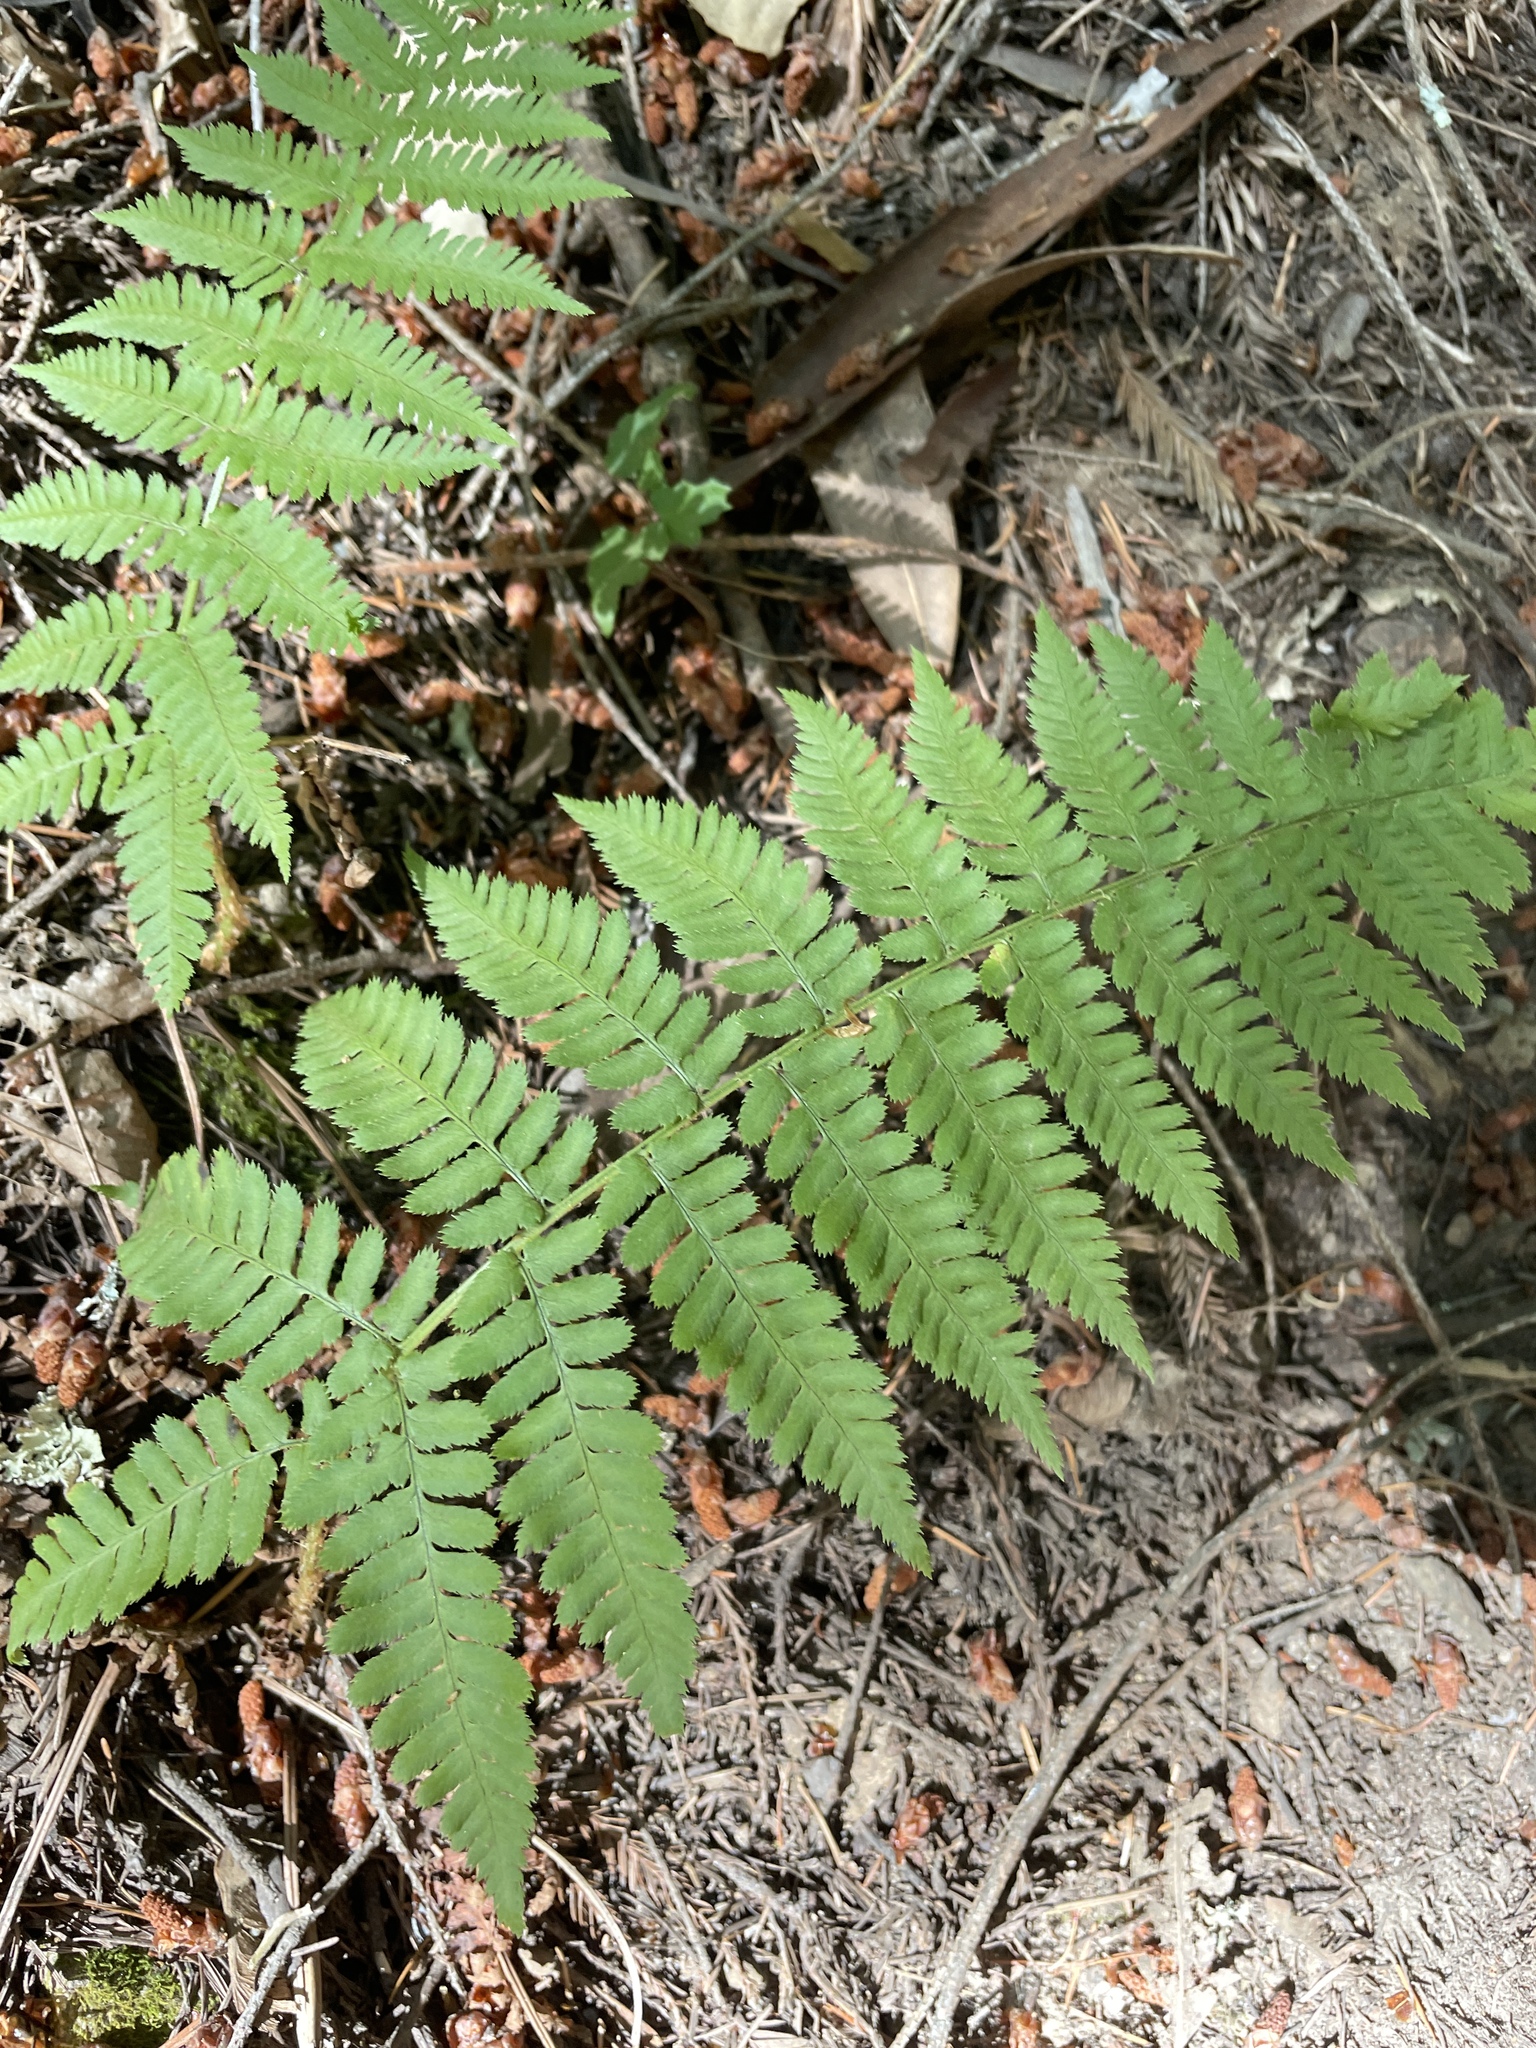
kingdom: Plantae
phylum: Tracheophyta
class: Polypodiopsida
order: Polypodiales
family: Dryopteridaceae
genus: Dryopteris
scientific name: Dryopteris arguta
